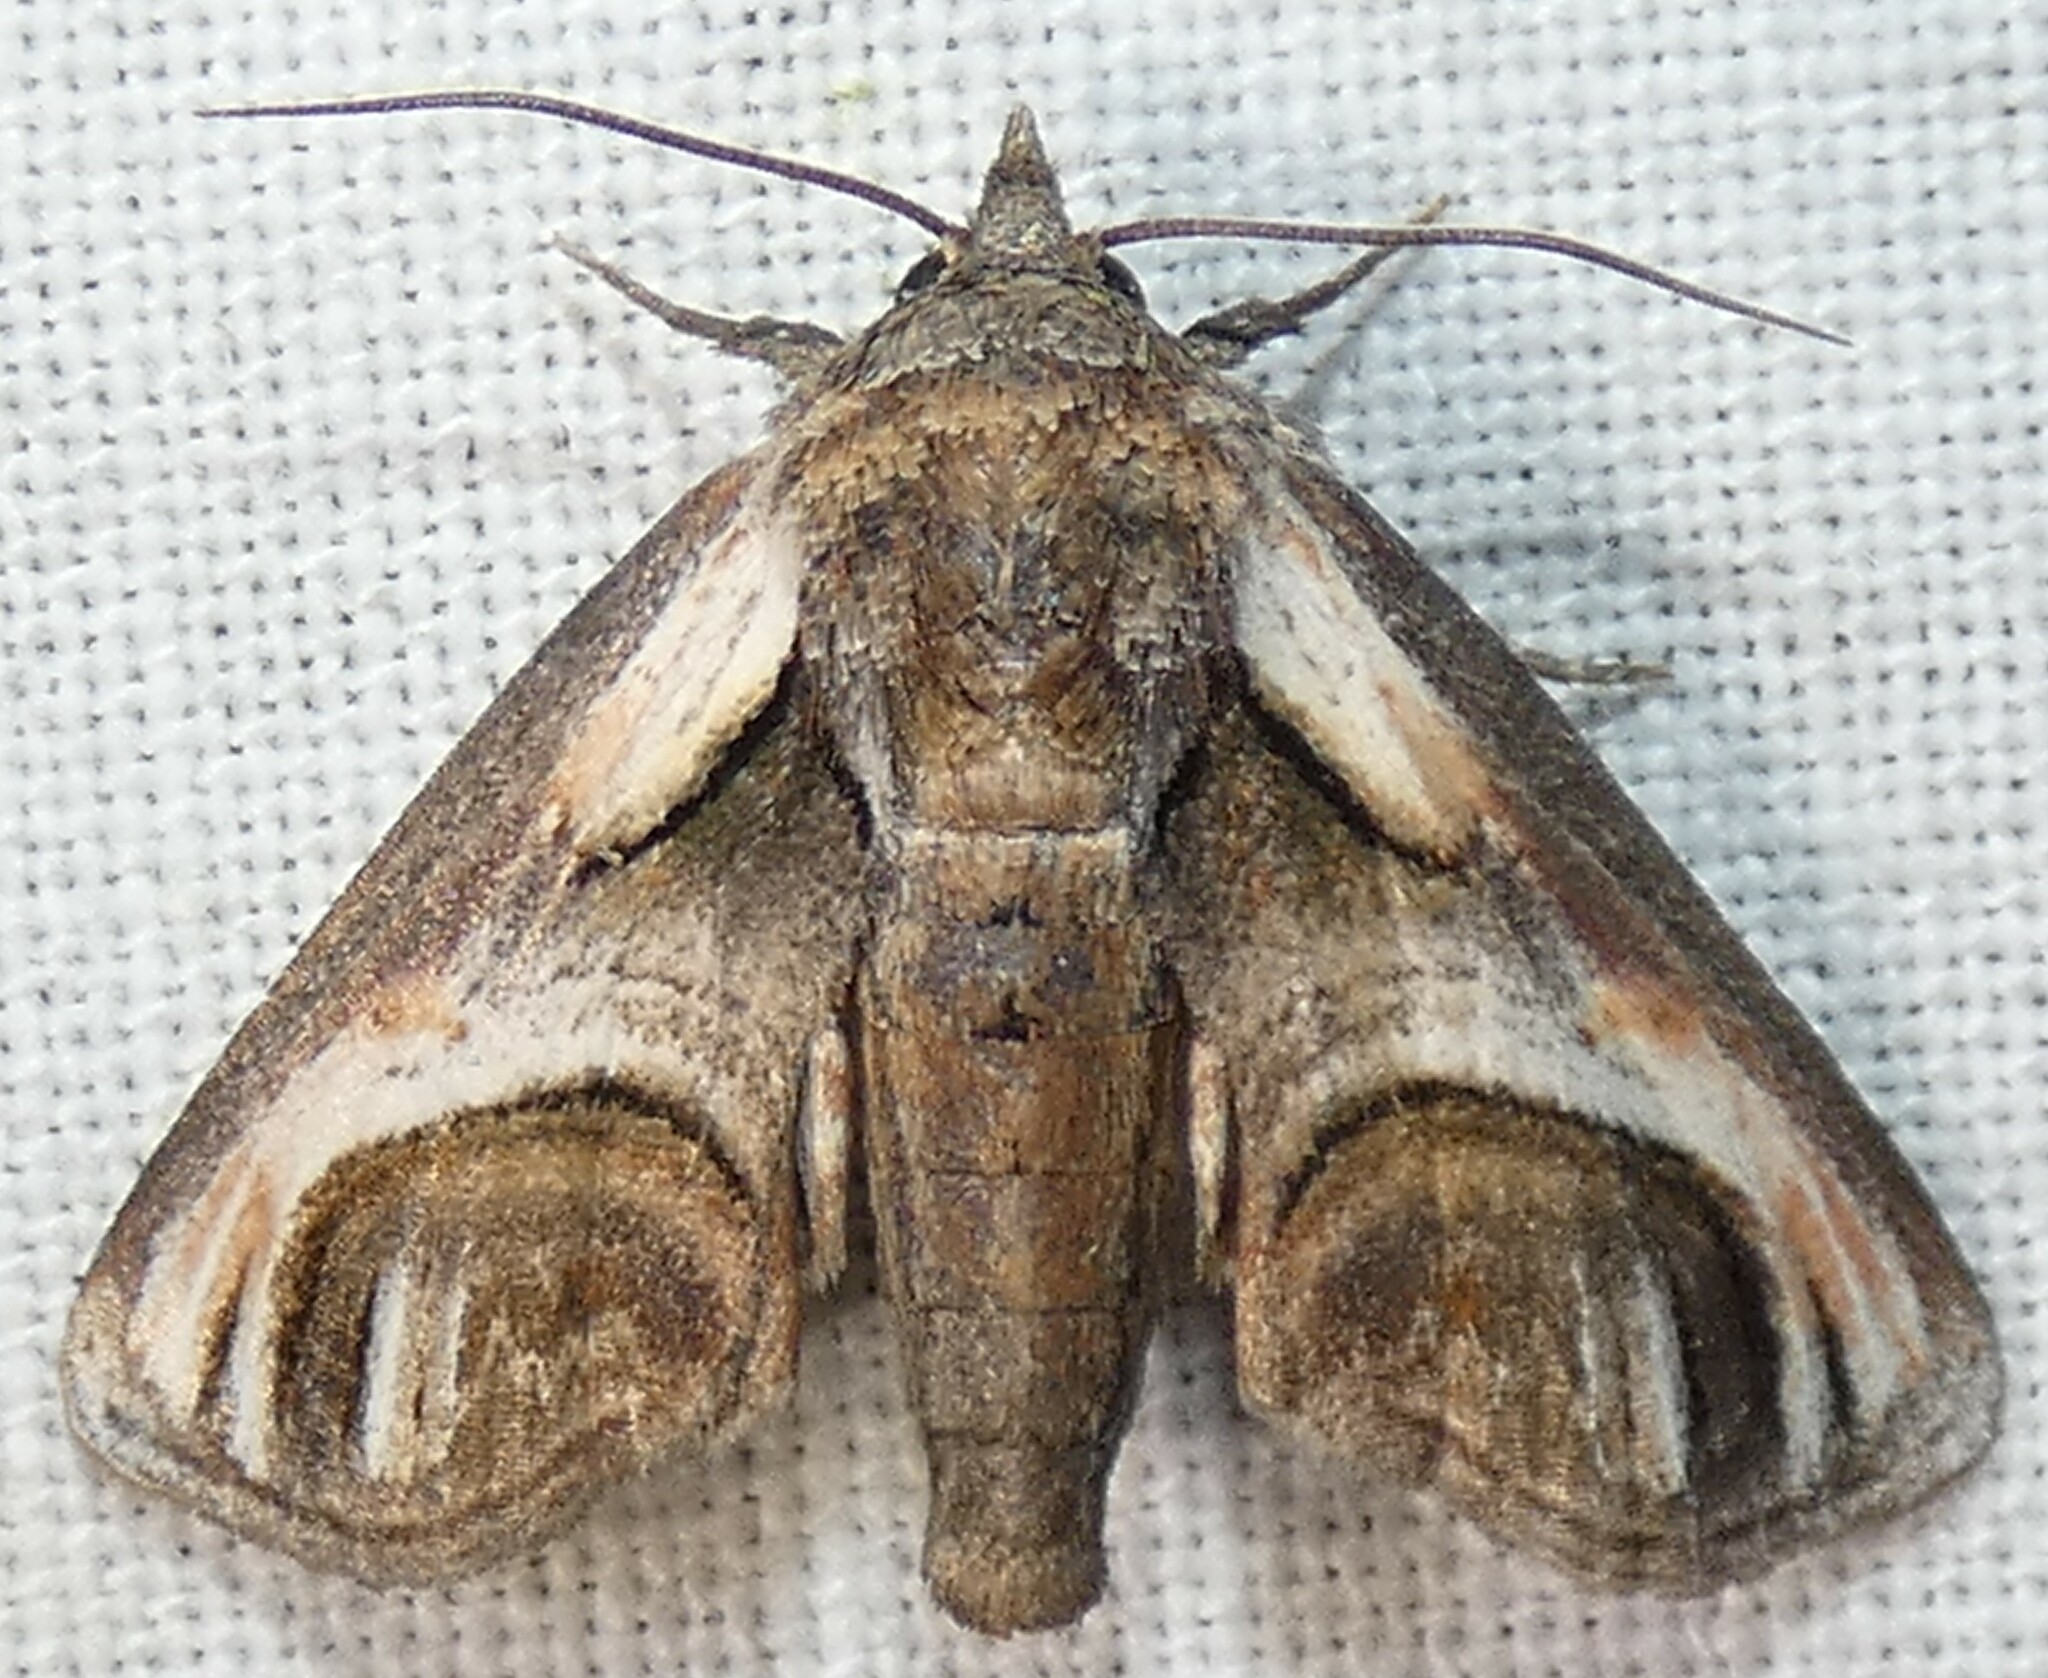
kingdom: Animalia
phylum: Arthropoda
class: Insecta
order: Lepidoptera
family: Euteliidae
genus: Paectes
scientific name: Paectes oculatrix
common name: Eyed paectes moth
